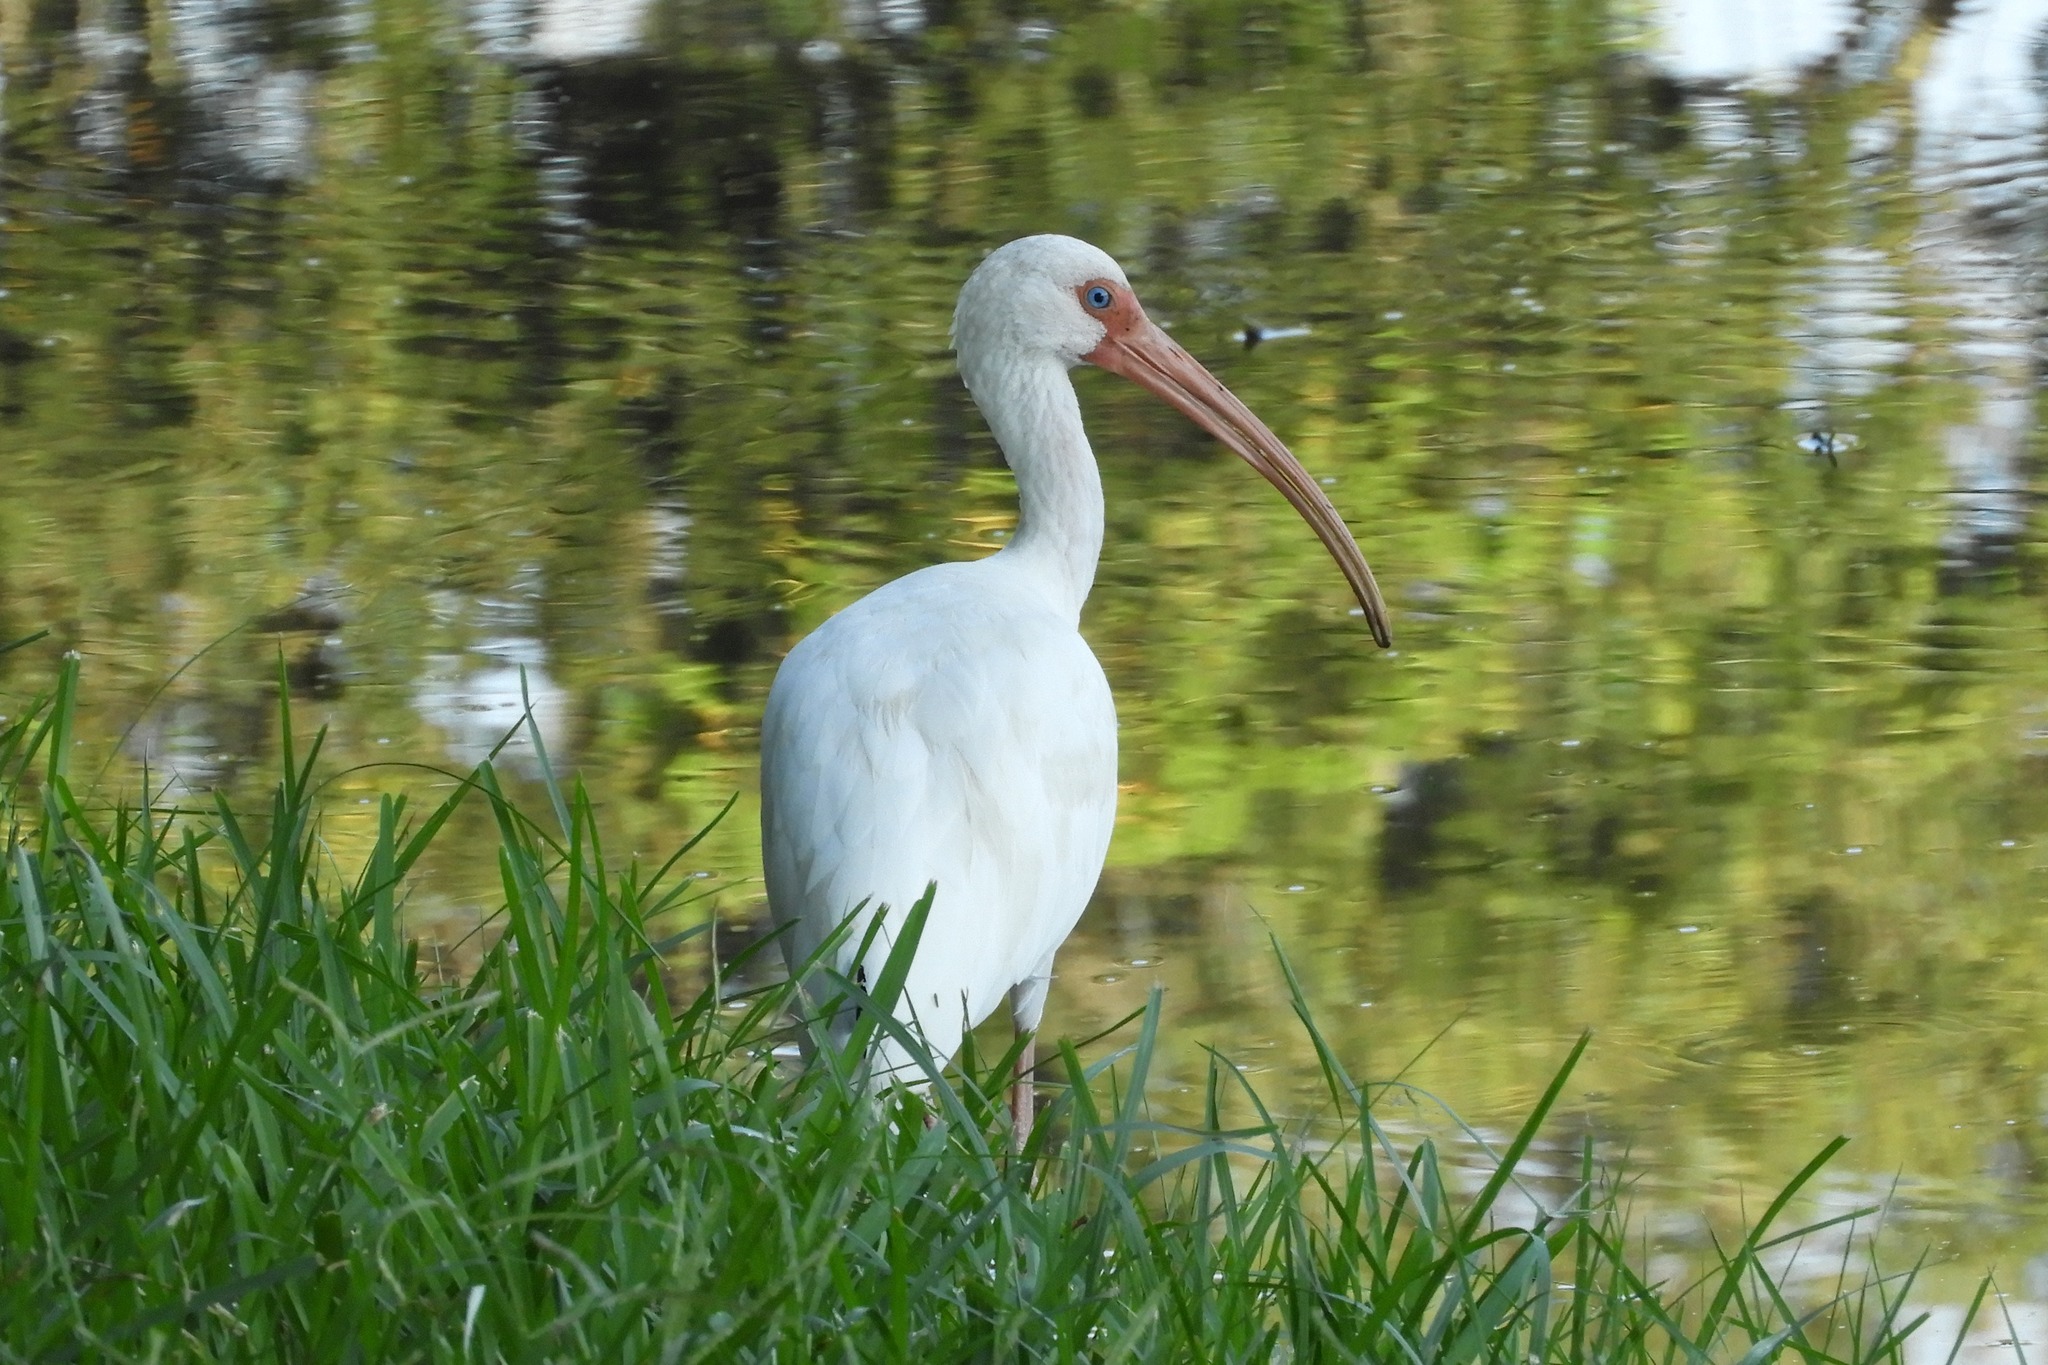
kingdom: Animalia
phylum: Chordata
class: Aves
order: Pelecaniformes
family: Threskiornithidae
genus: Eudocimus
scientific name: Eudocimus albus
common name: White ibis
